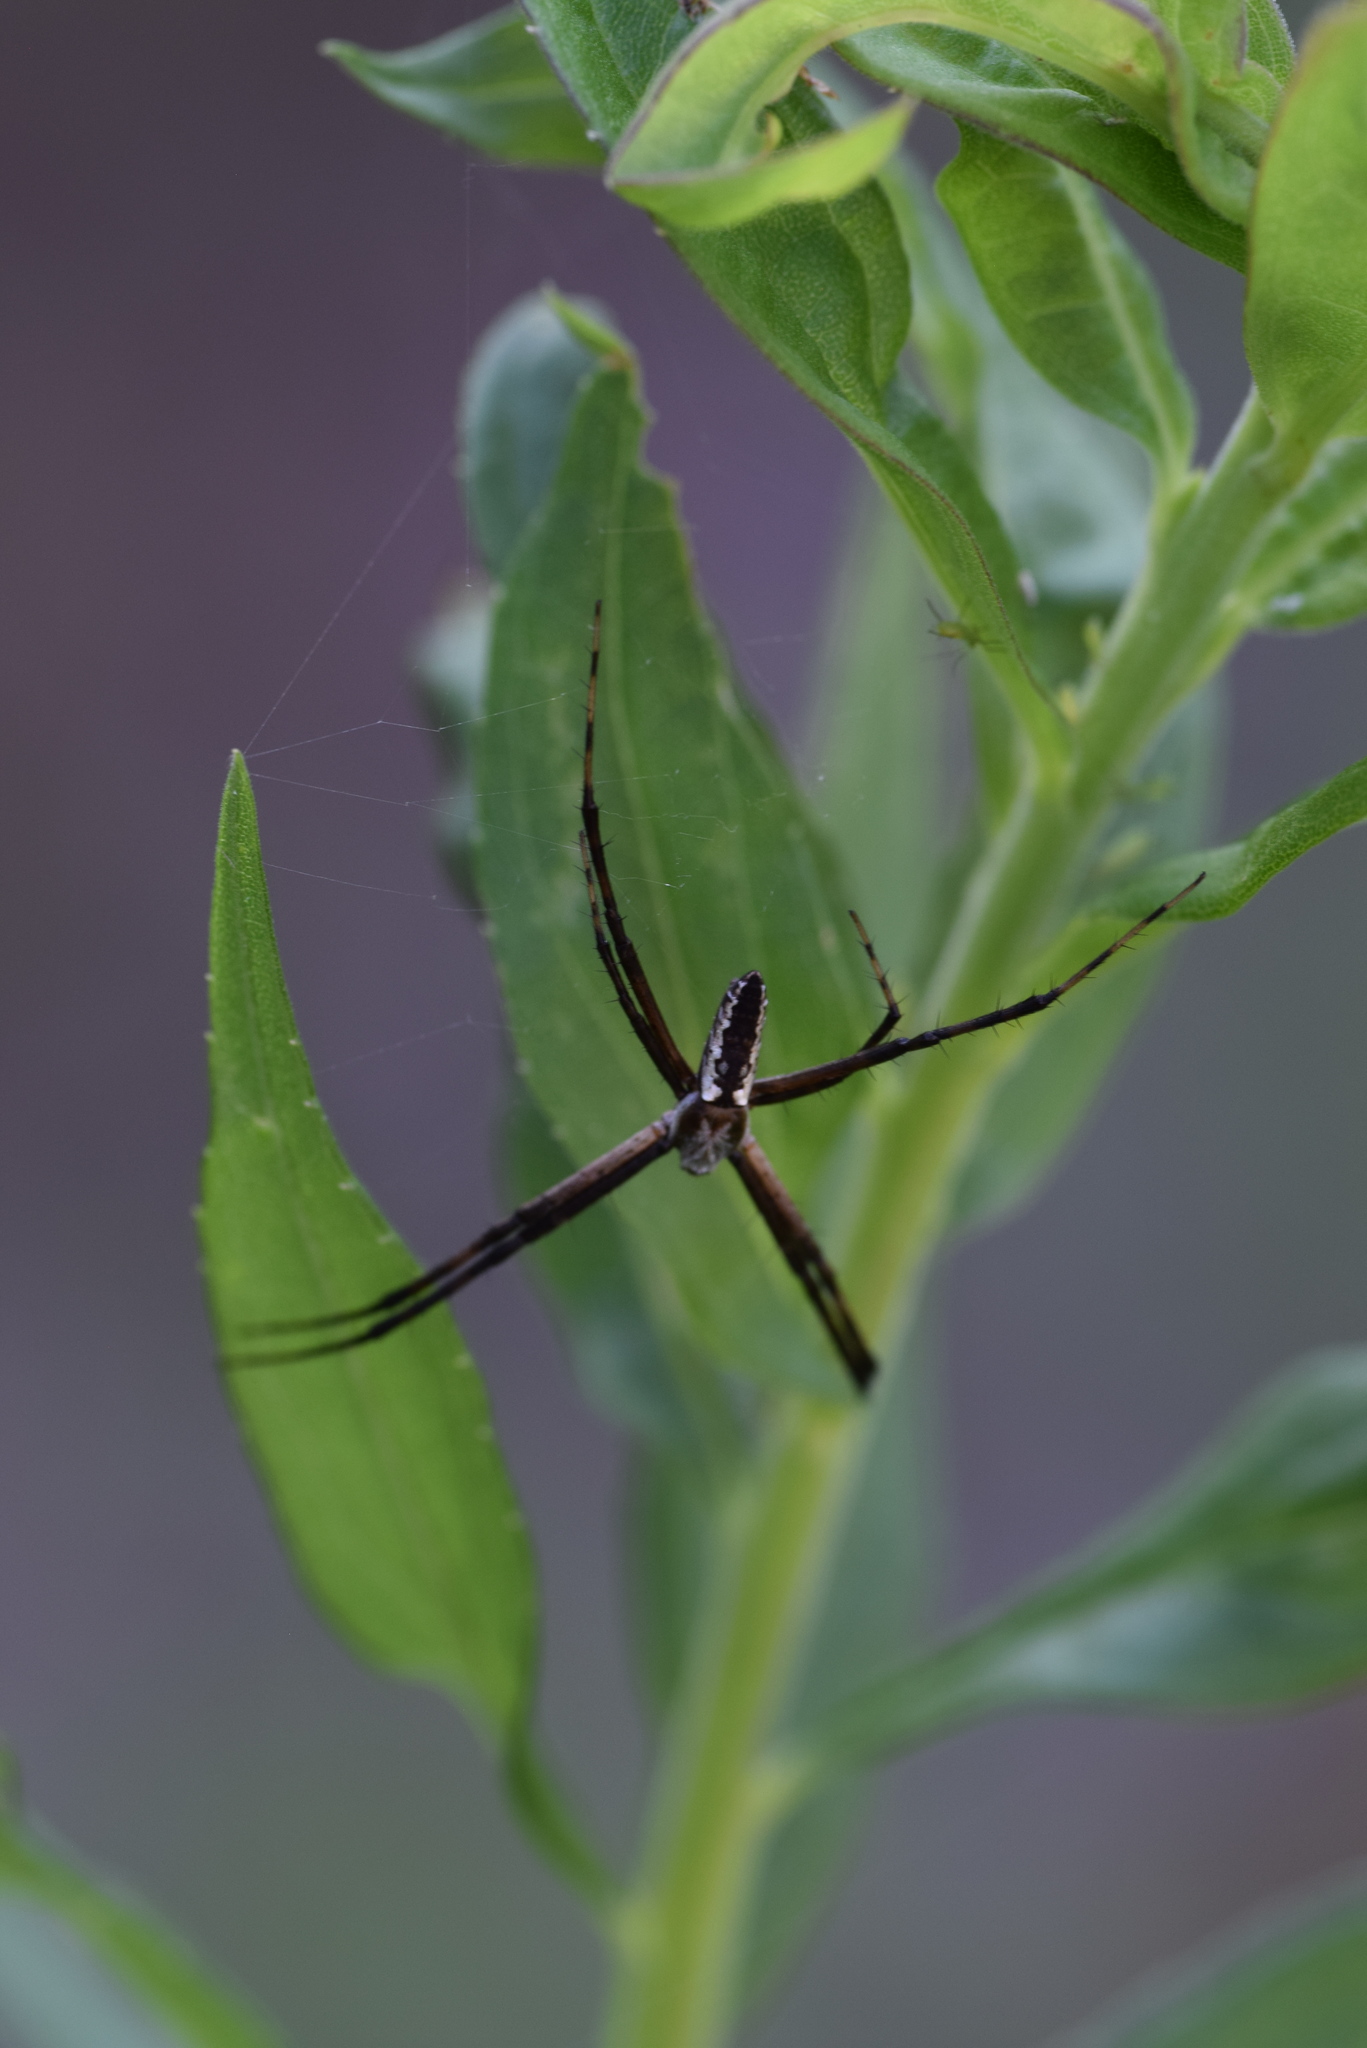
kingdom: Animalia
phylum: Arthropoda
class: Arachnida
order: Araneae
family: Araneidae
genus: Argiope
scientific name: Argiope aurantia
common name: Orb weavers
